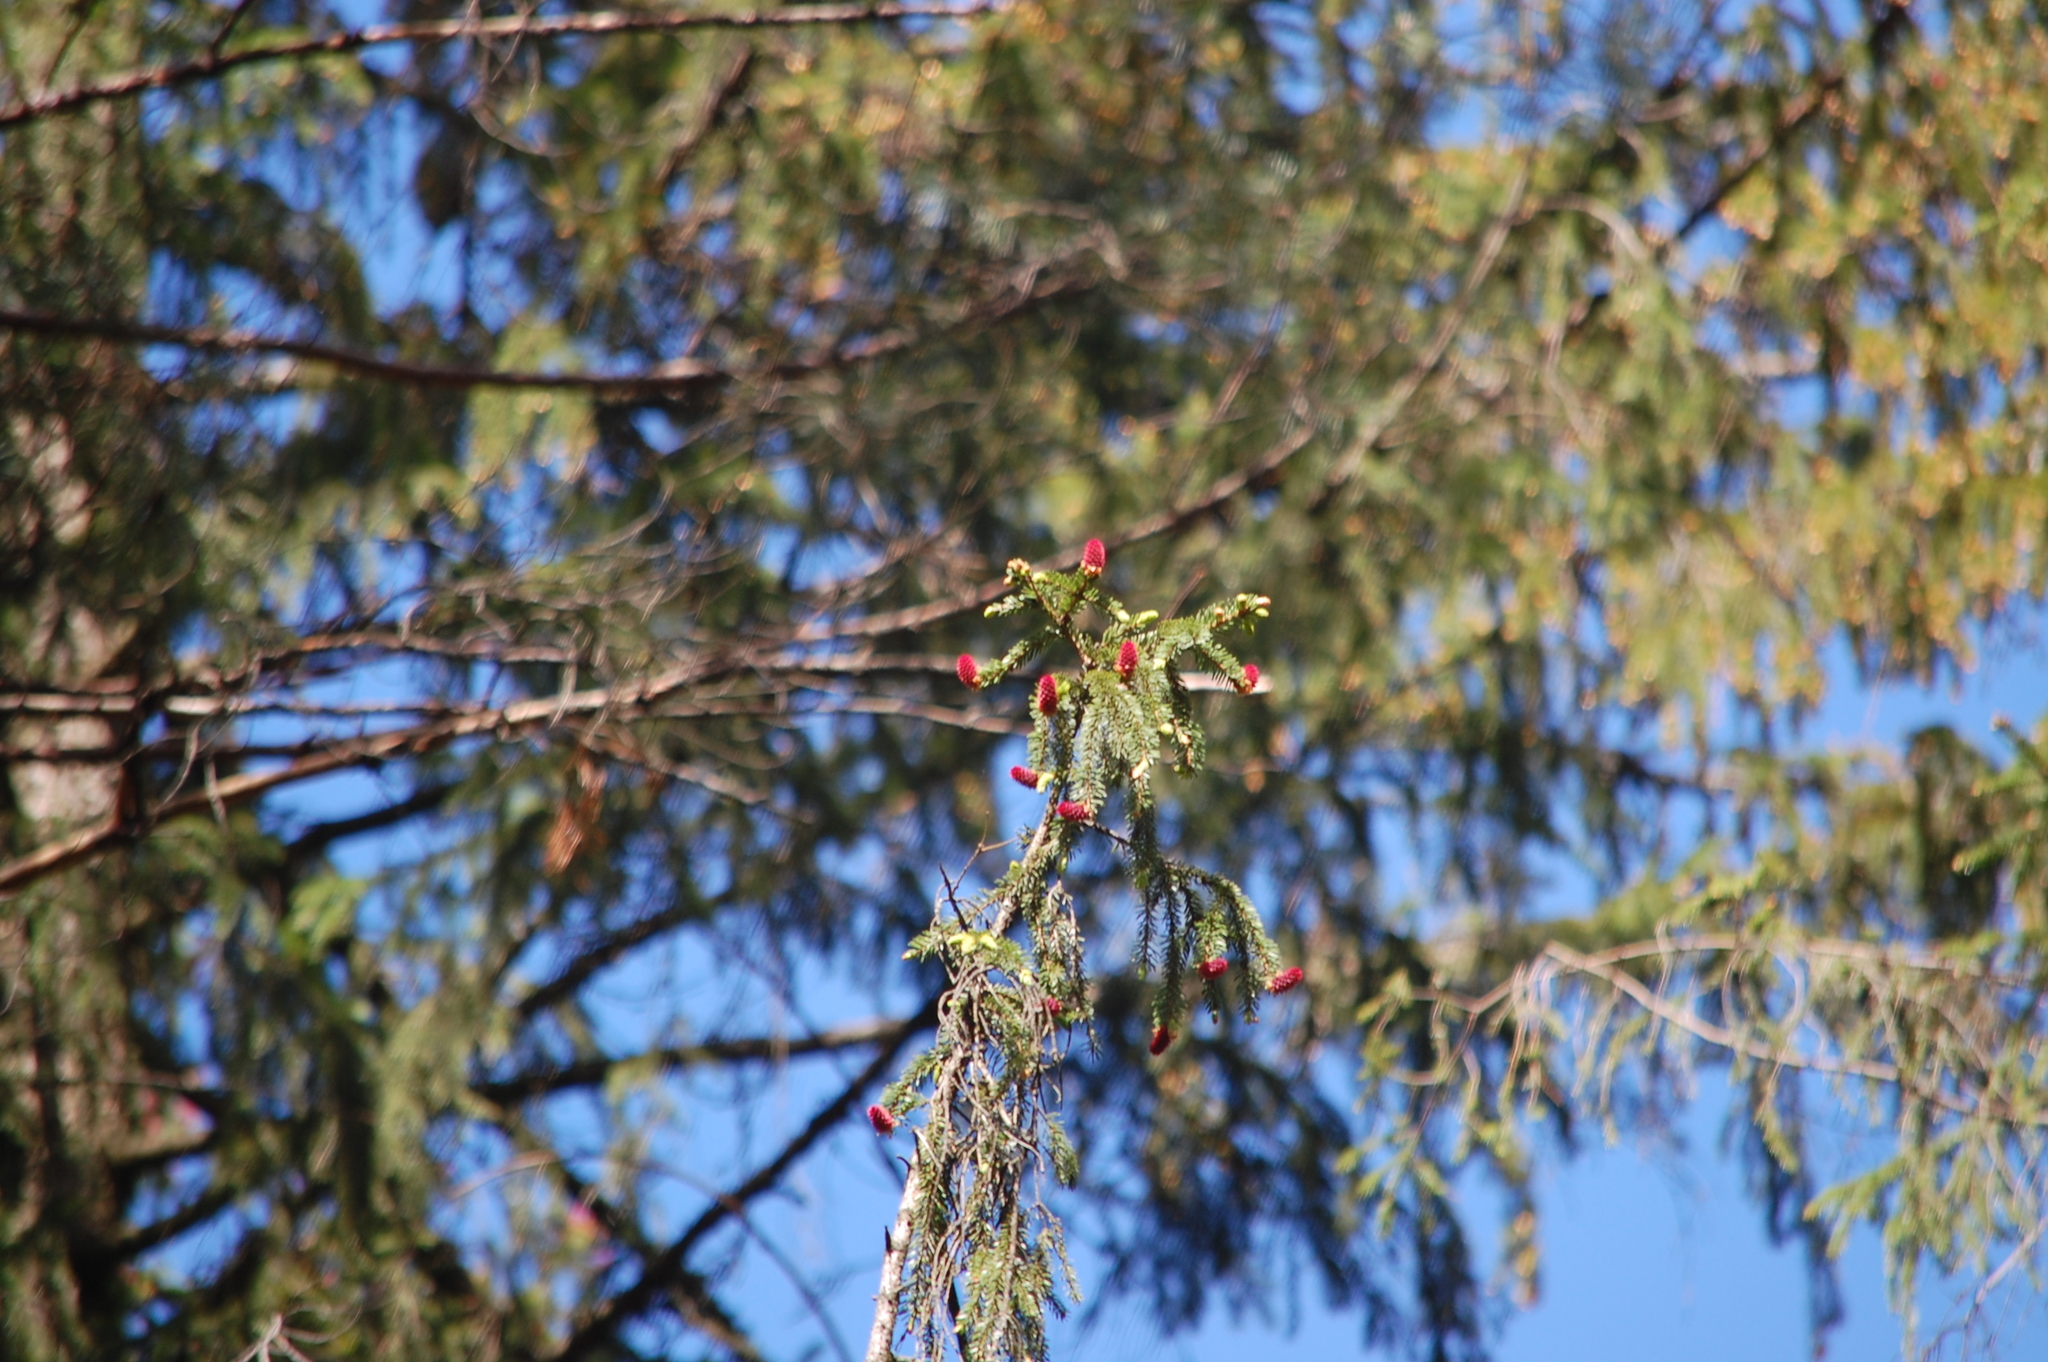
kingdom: Plantae
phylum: Tracheophyta
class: Pinopsida
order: Pinales
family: Pinaceae
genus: Picea
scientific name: Picea abies
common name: Norway spruce
